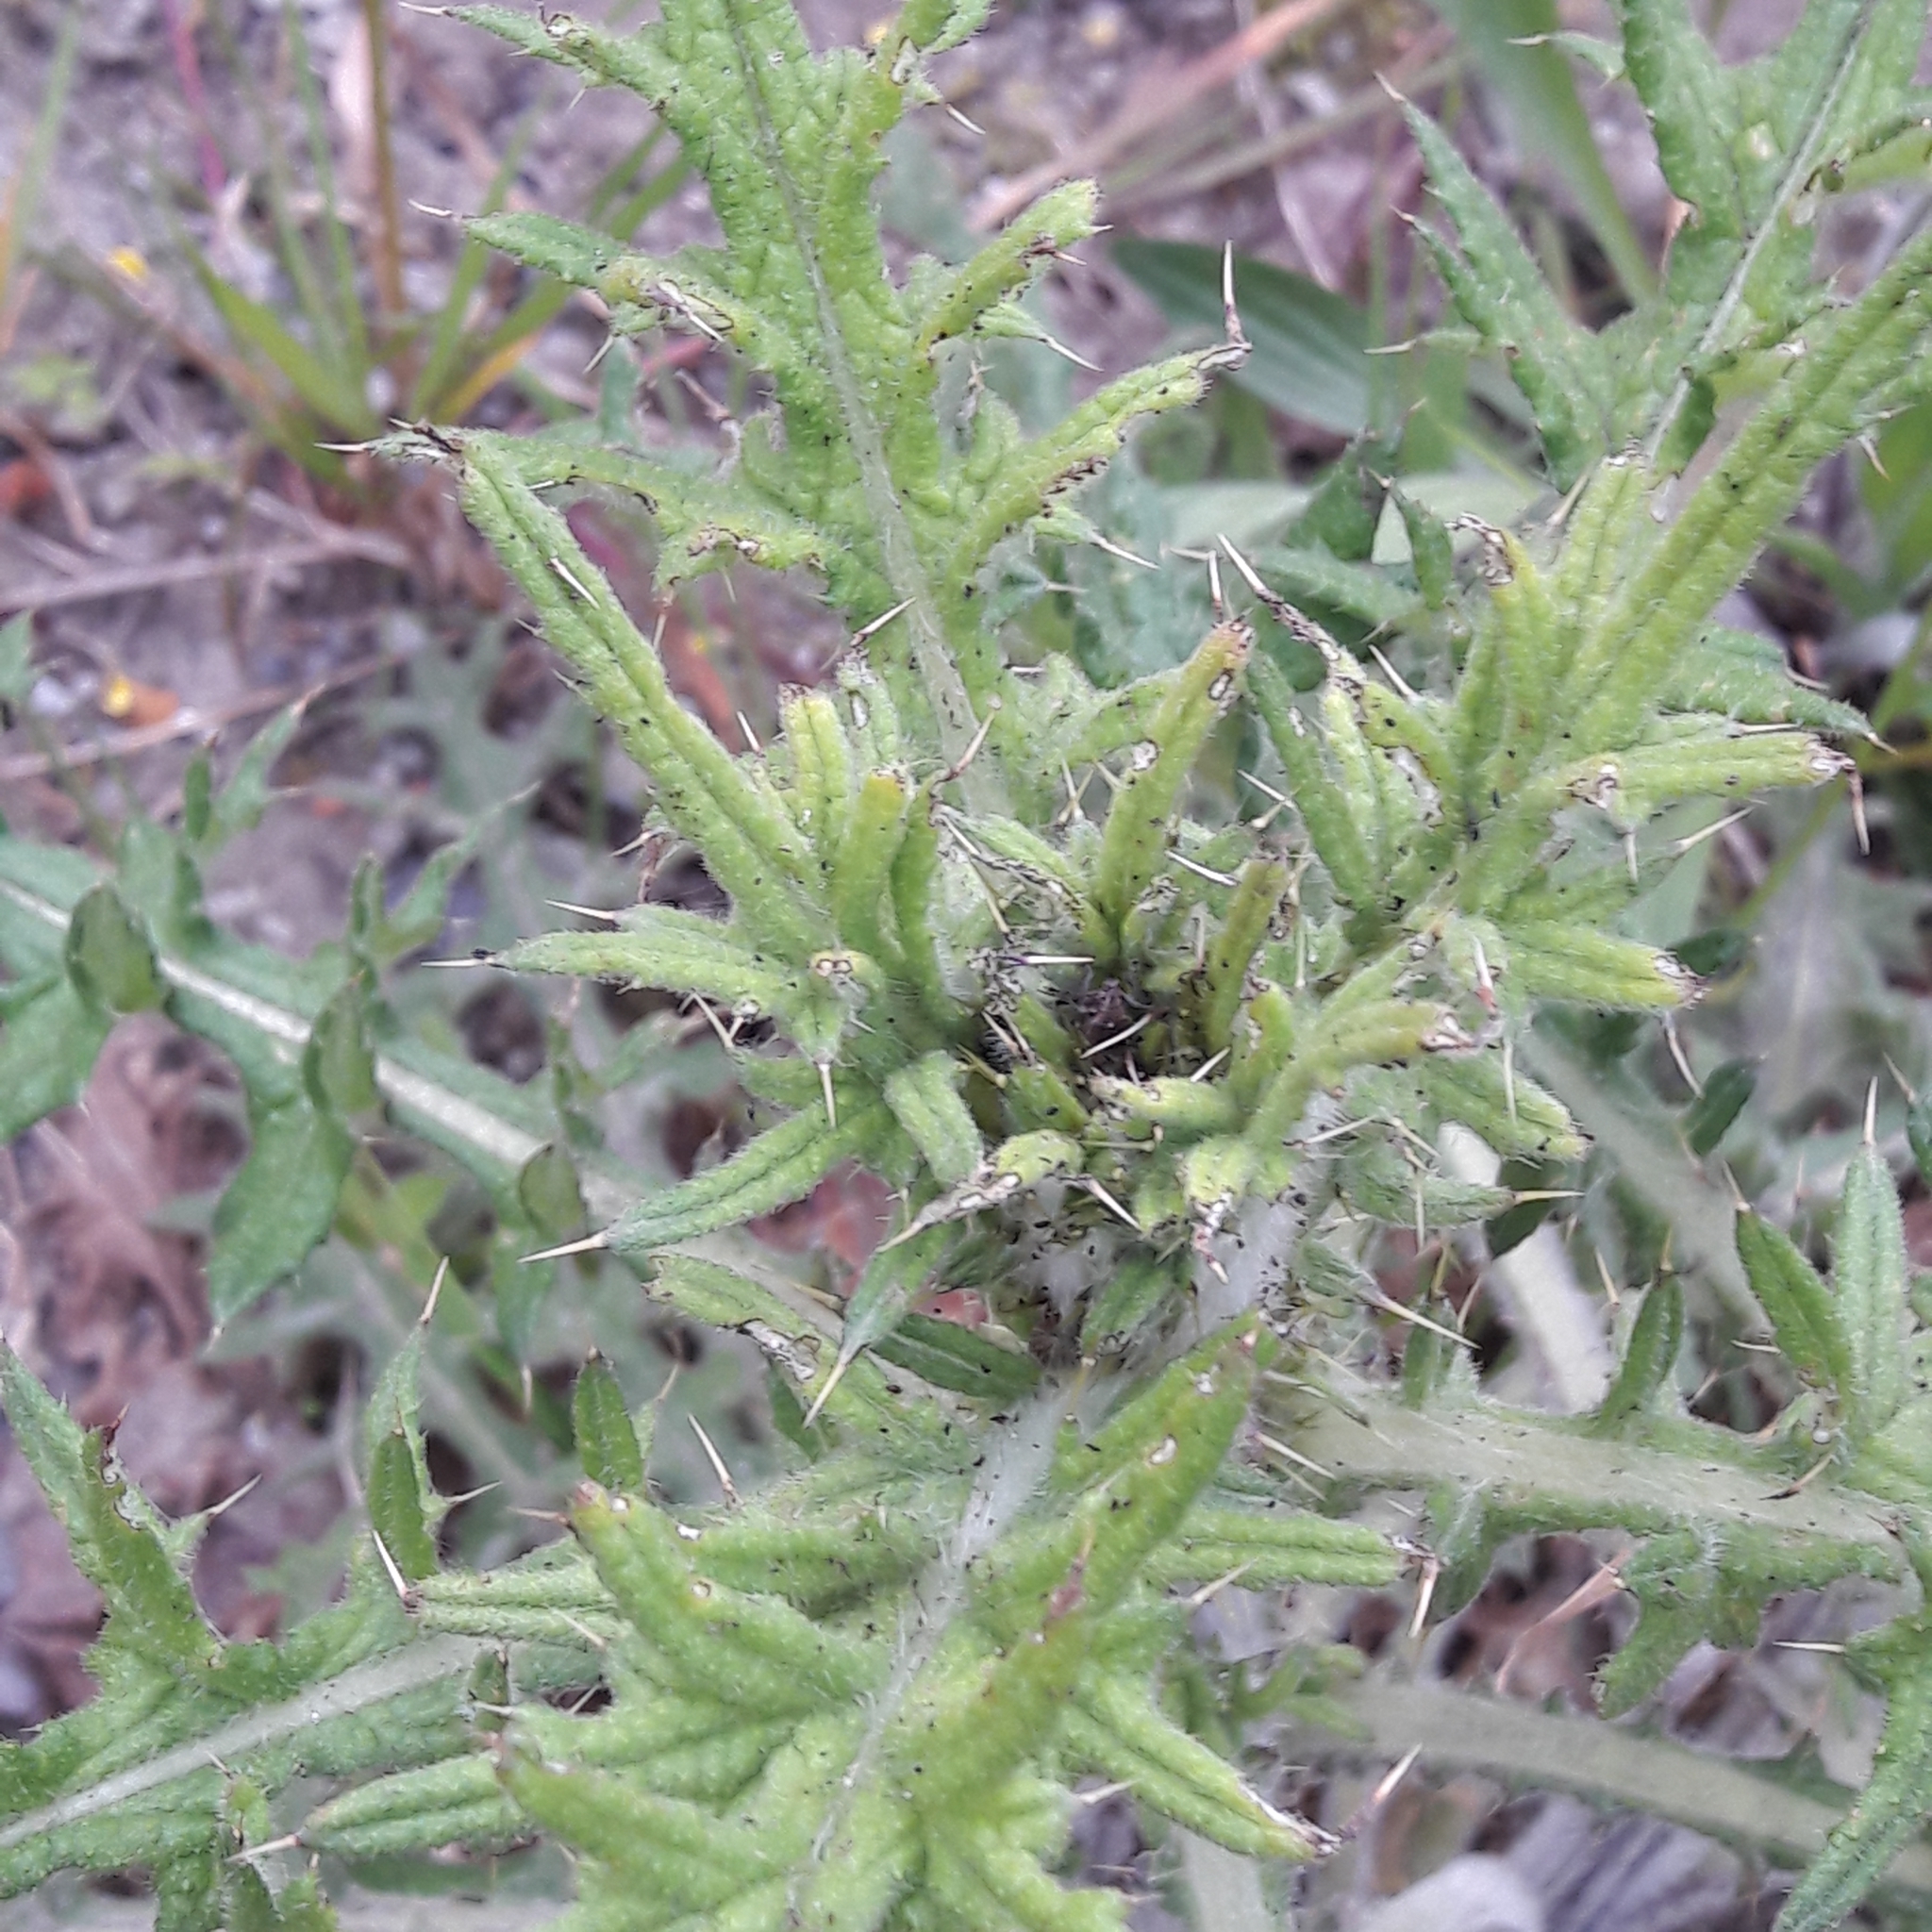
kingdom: Plantae
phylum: Tracheophyta
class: Magnoliopsida
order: Asterales
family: Asteraceae
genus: Cirsium
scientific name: Cirsium vulgare
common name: Bull thistle
